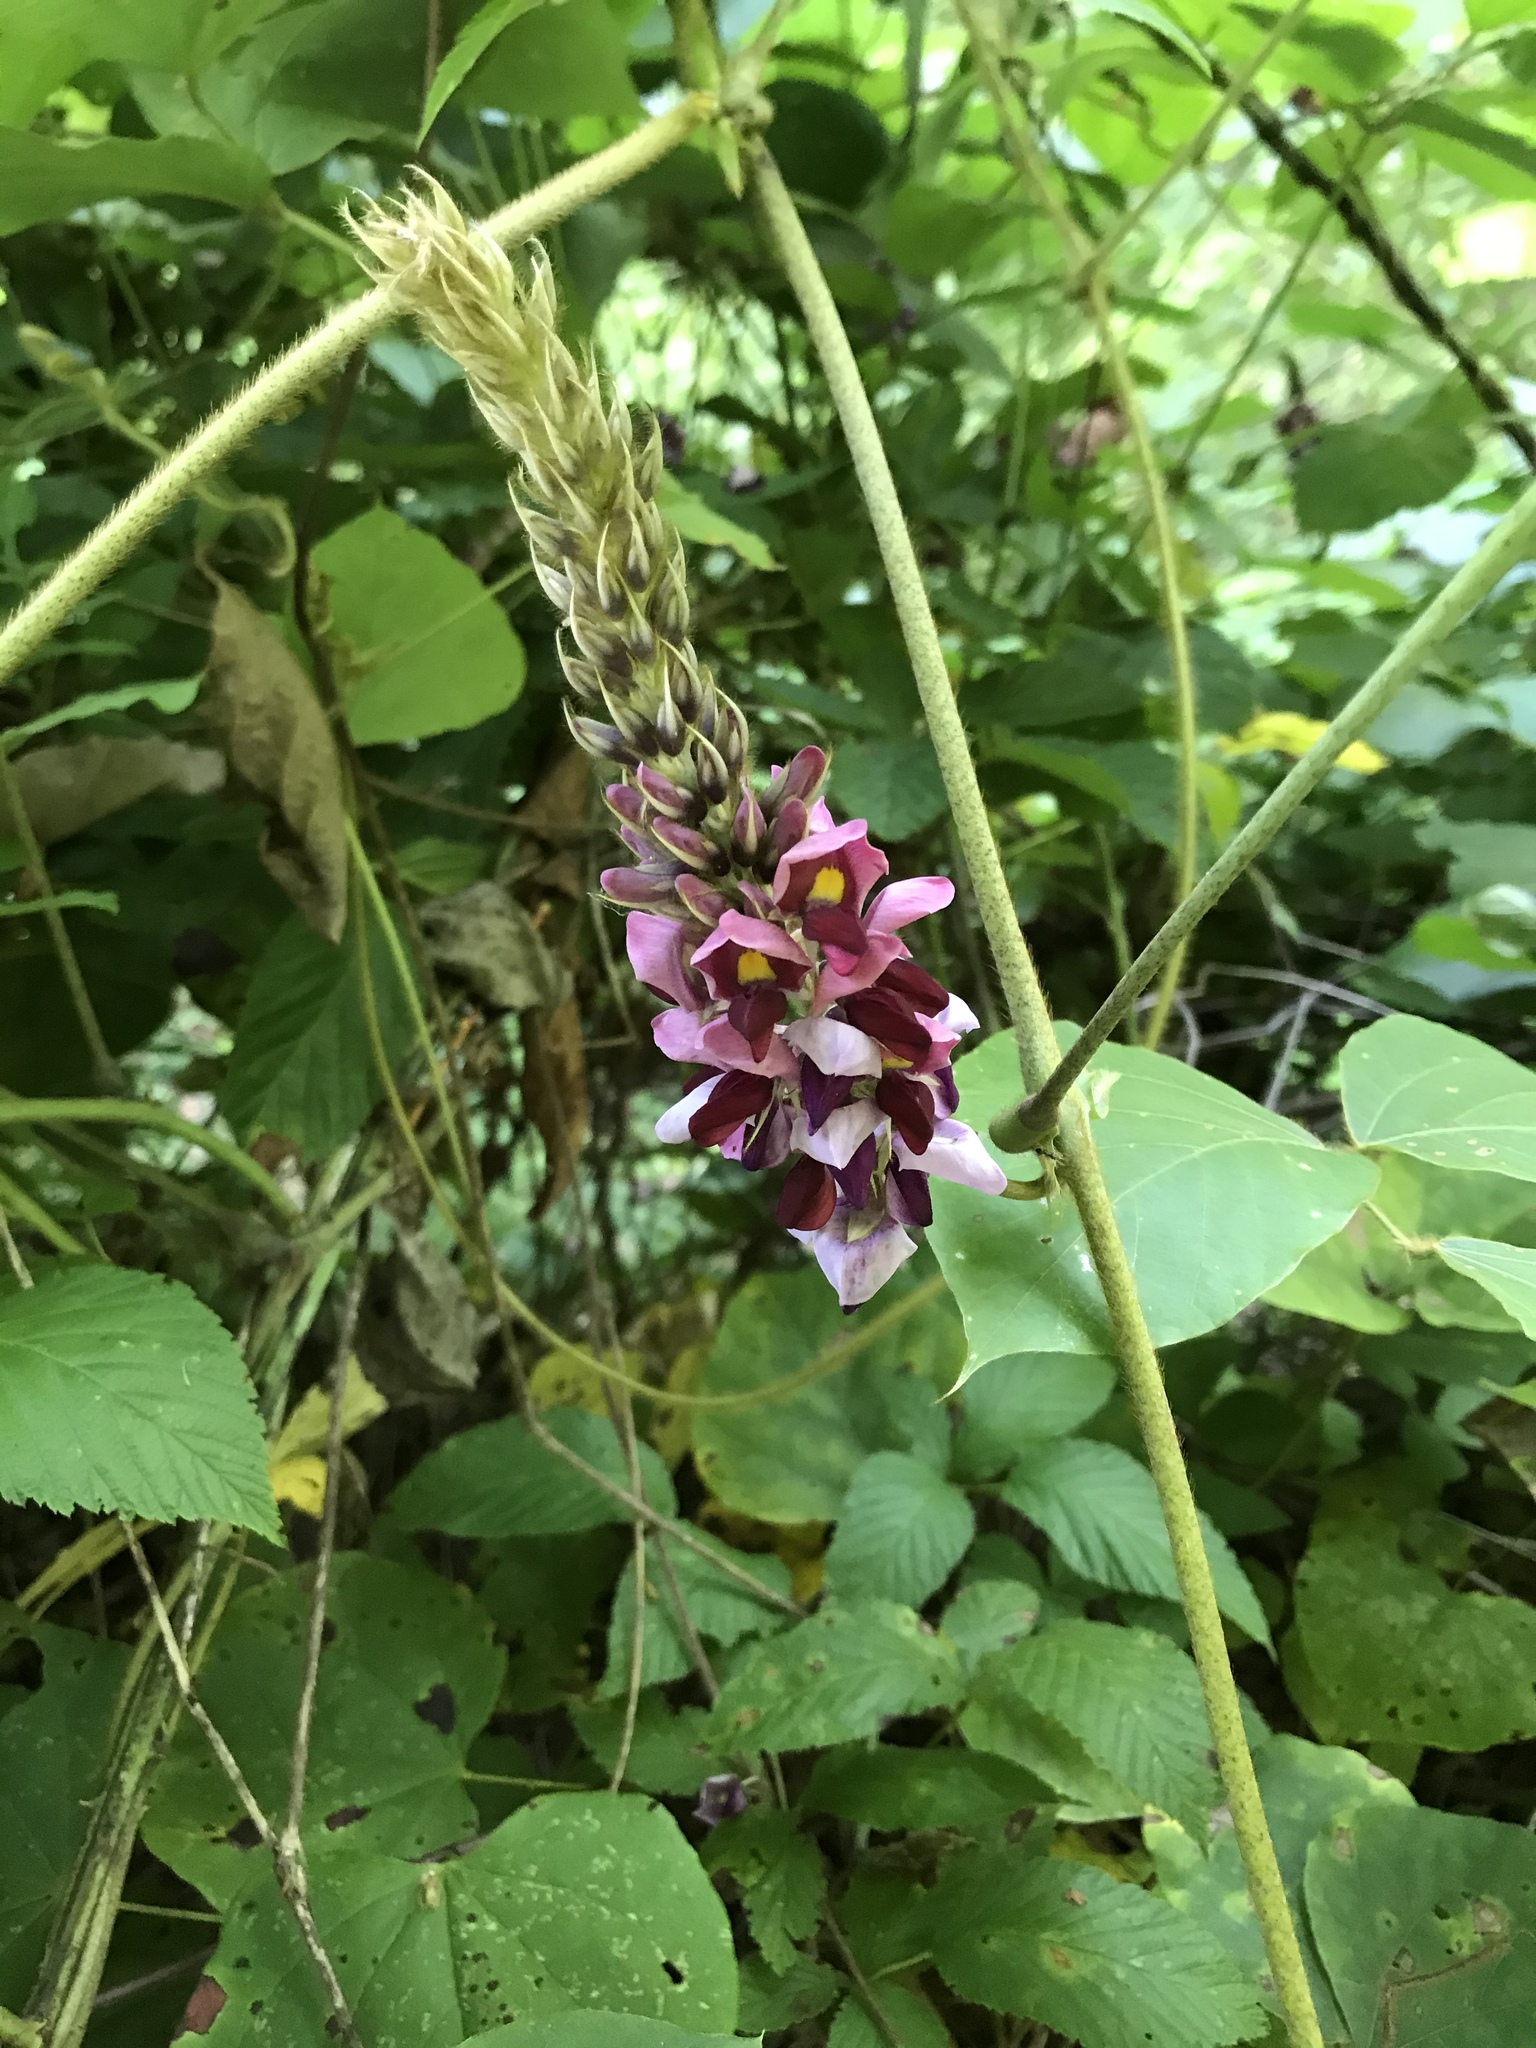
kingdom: Plantae
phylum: Tracheophyta
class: Magnoliopsida
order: Fabales
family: Fabaceae
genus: Pueraria
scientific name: Pueraria montana
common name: Kudzu
